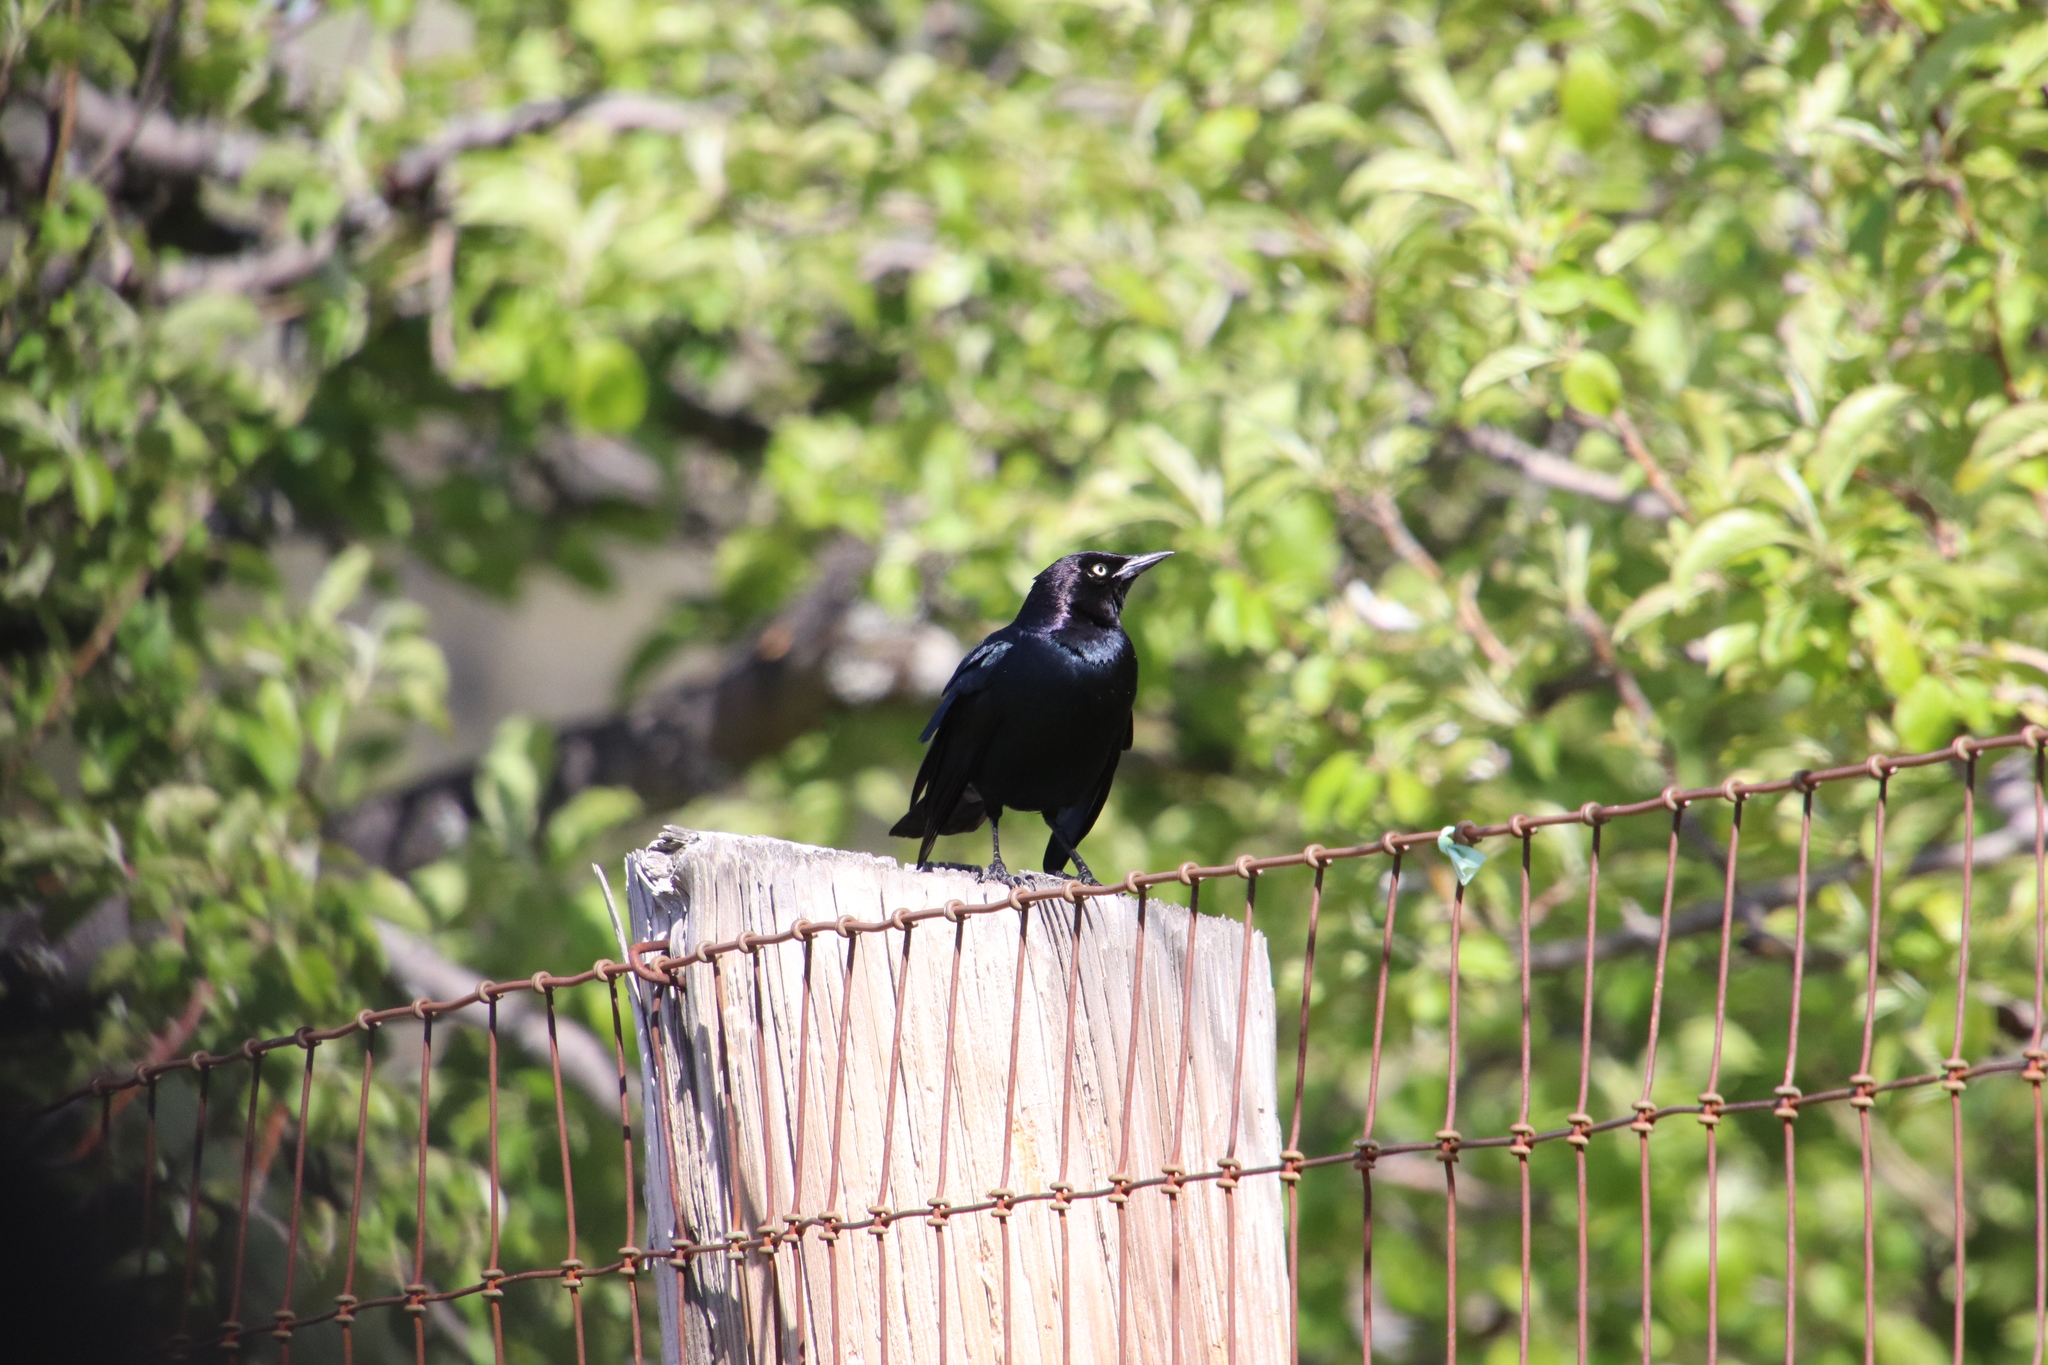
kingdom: Animalia
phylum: Chordata
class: Aves
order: Passeriformes
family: Icteridae
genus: Euphagus
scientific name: Euphagus cyanocephalus
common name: Brewer's blackbird
